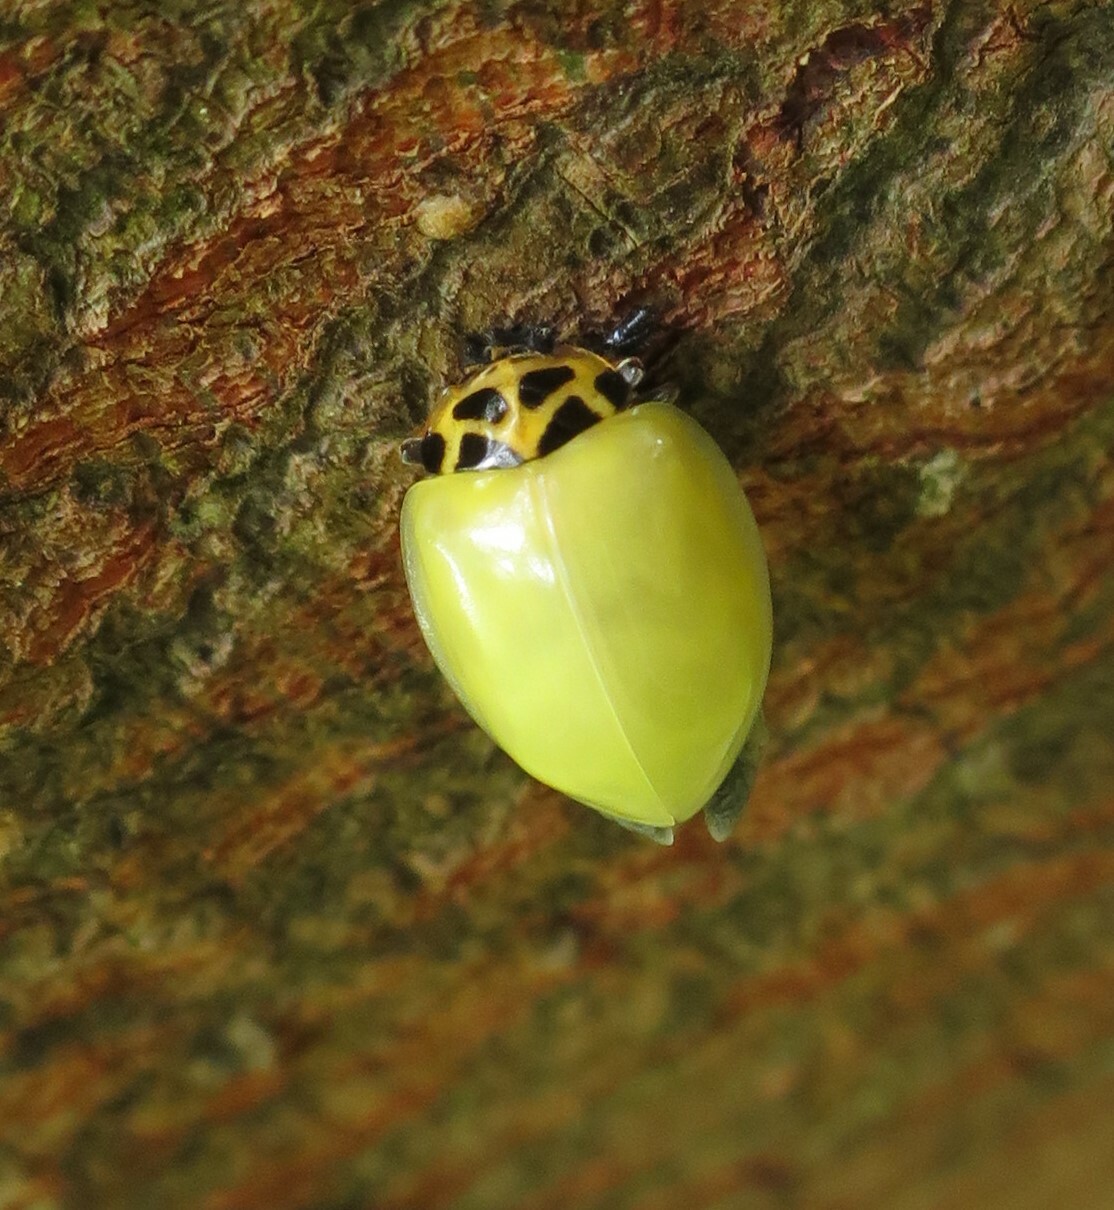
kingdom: Animalia
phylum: Arthropoda
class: Insecta
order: Coleoptera
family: Coccinellidae
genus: Cleobora
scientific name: Cleobora
